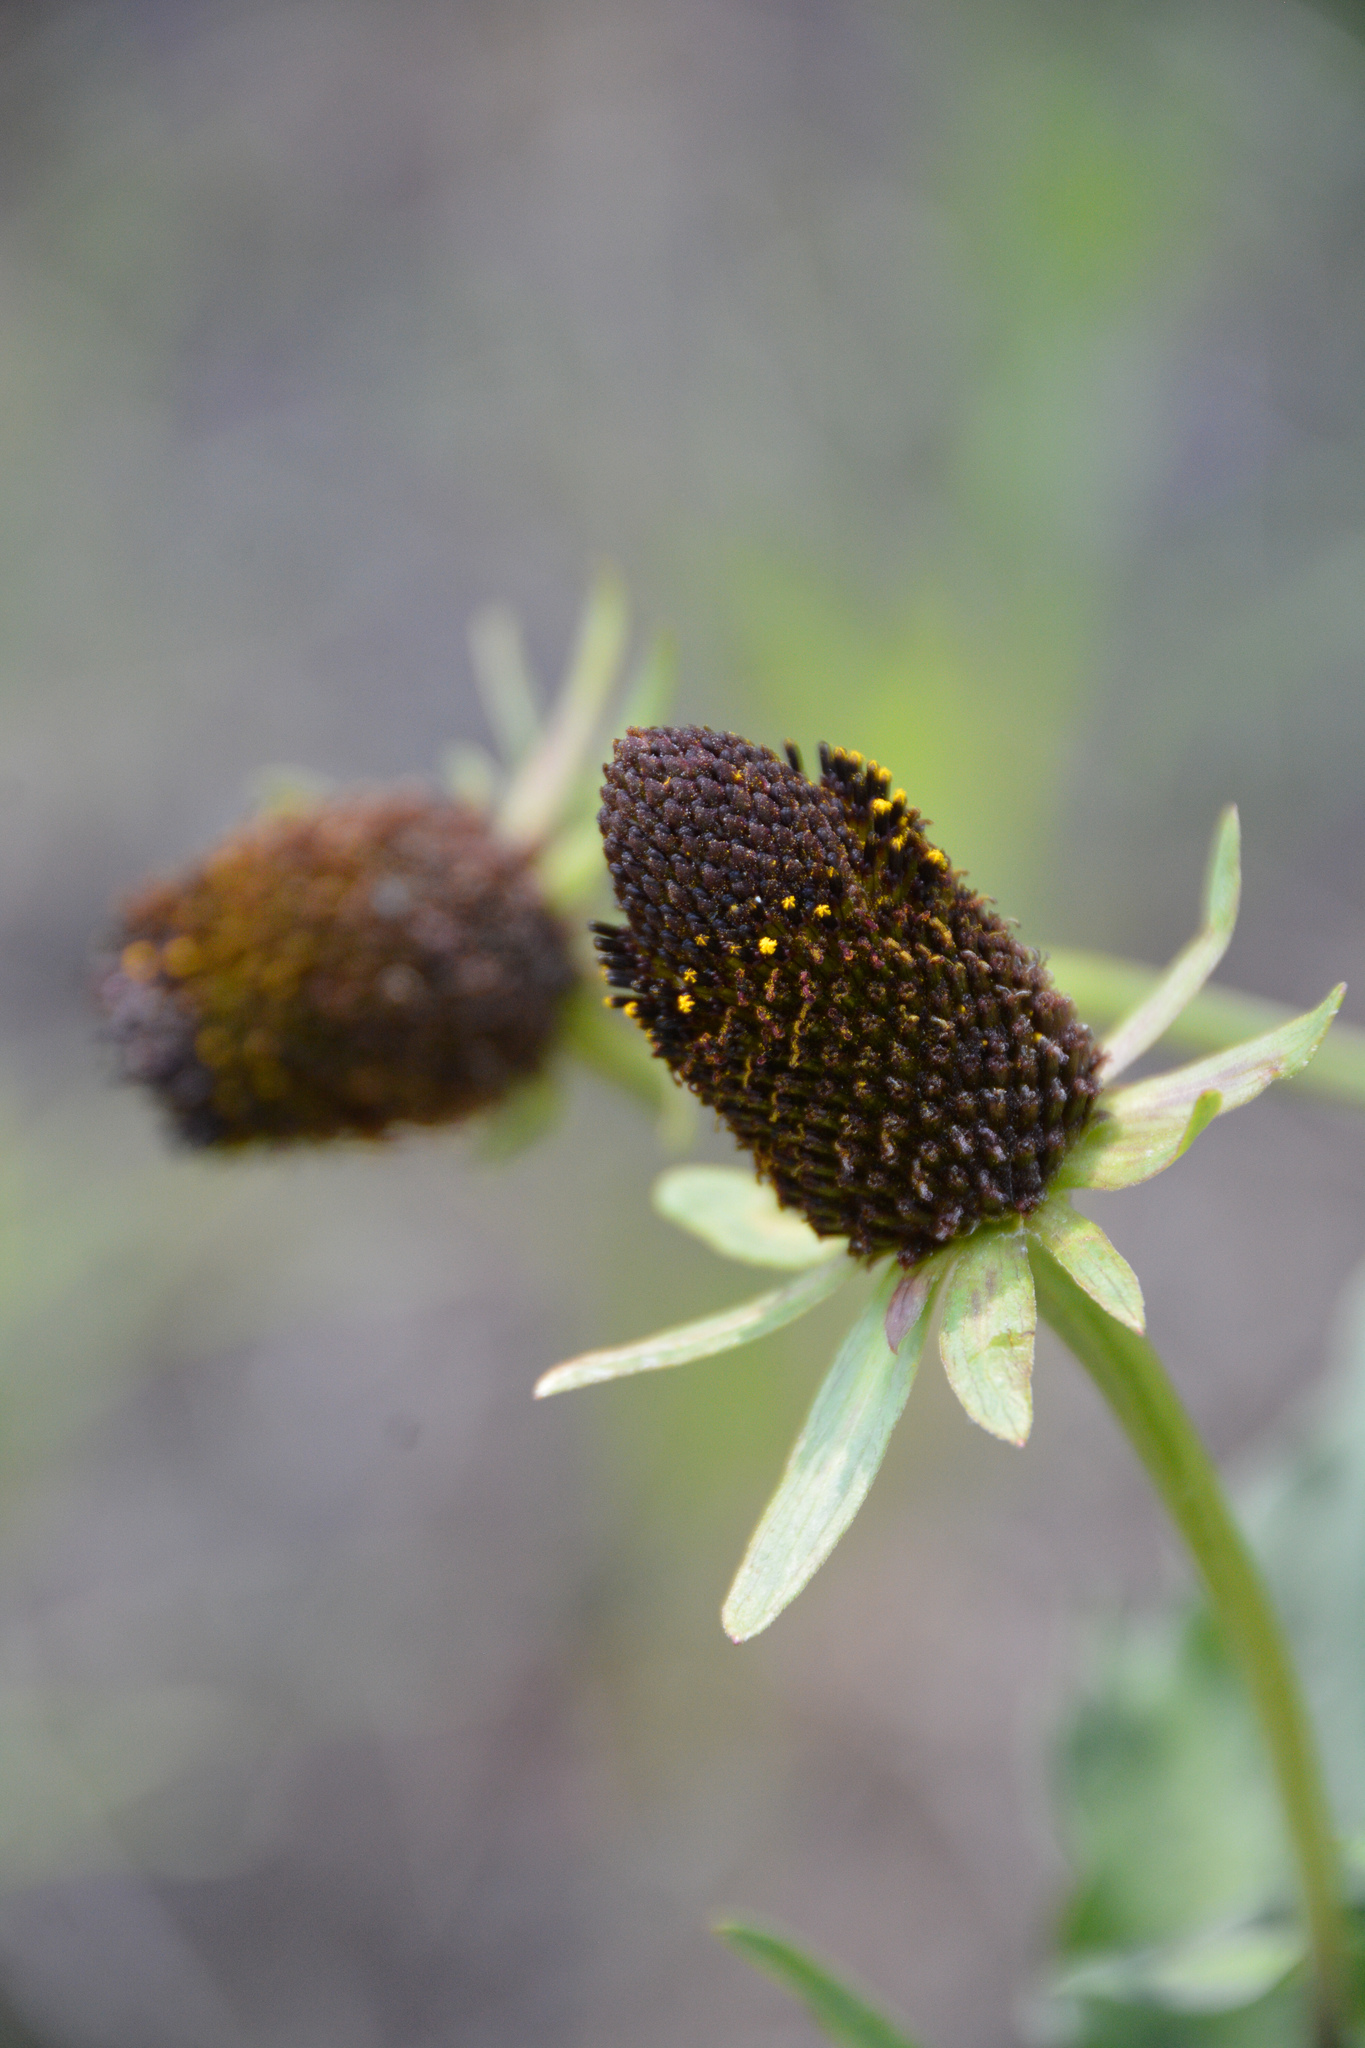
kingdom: Plantae
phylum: Tracheophyta
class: Magnoliopsida
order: Asterales
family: Asteraceae
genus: Rudbeckia
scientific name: Rudbeckia occidentalis
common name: Western coneflower
